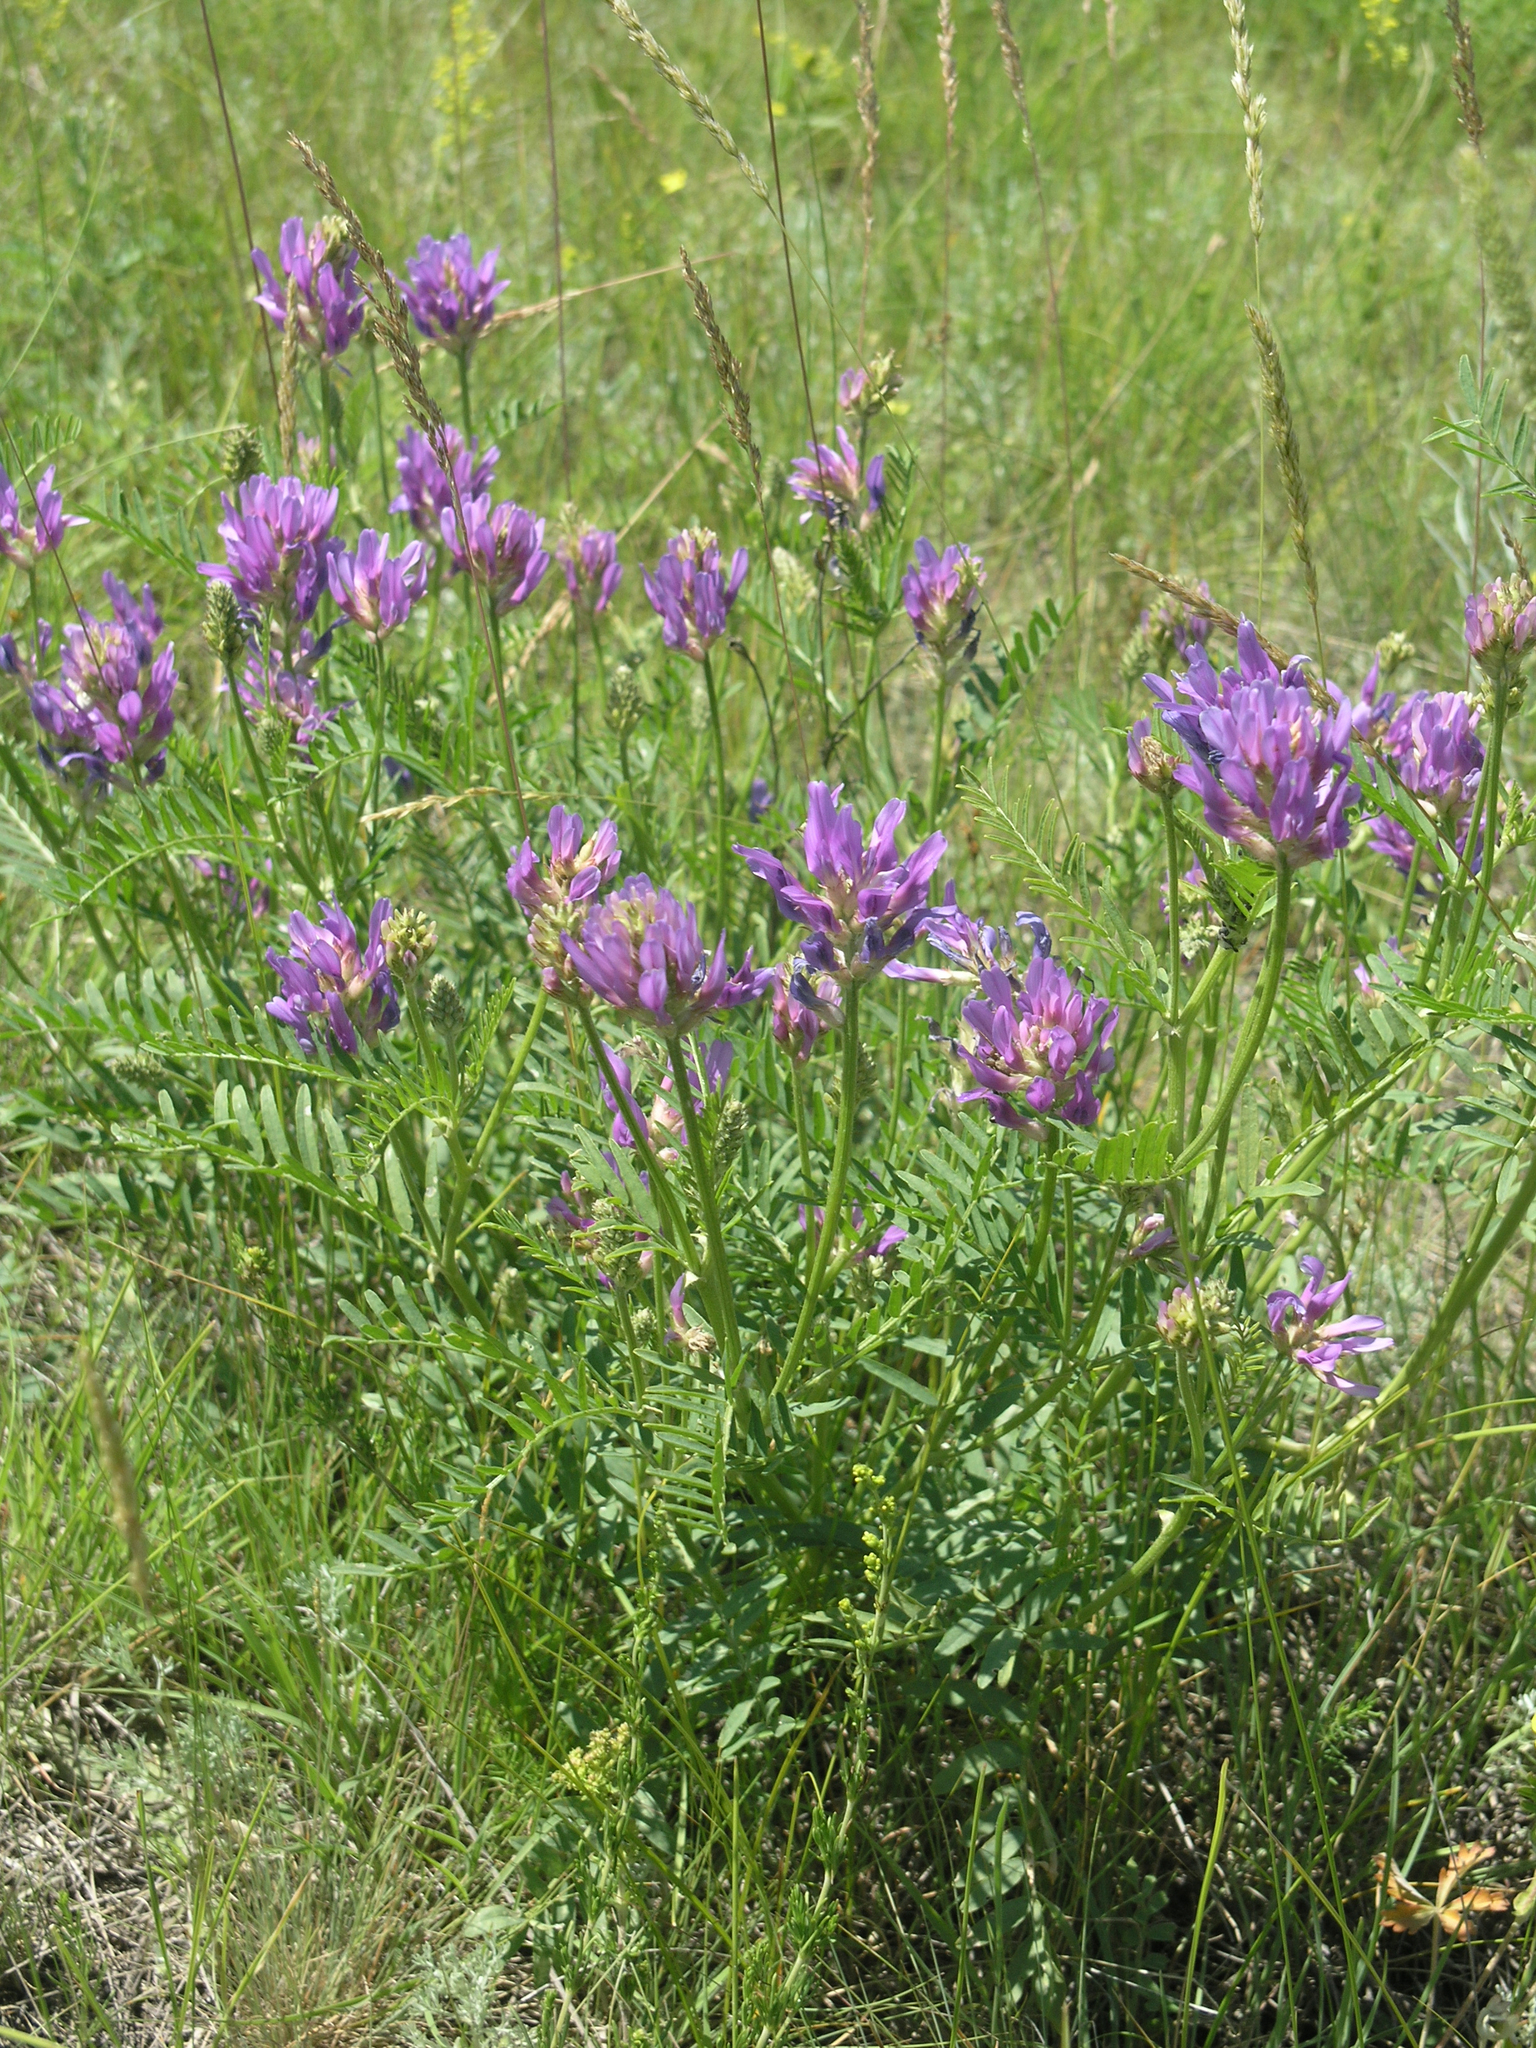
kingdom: Plantae
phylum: Tracheophyta
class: Magnoliopsida
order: Fabales
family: Fabaceae
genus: Astragalus
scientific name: Astragalus onobrychis
